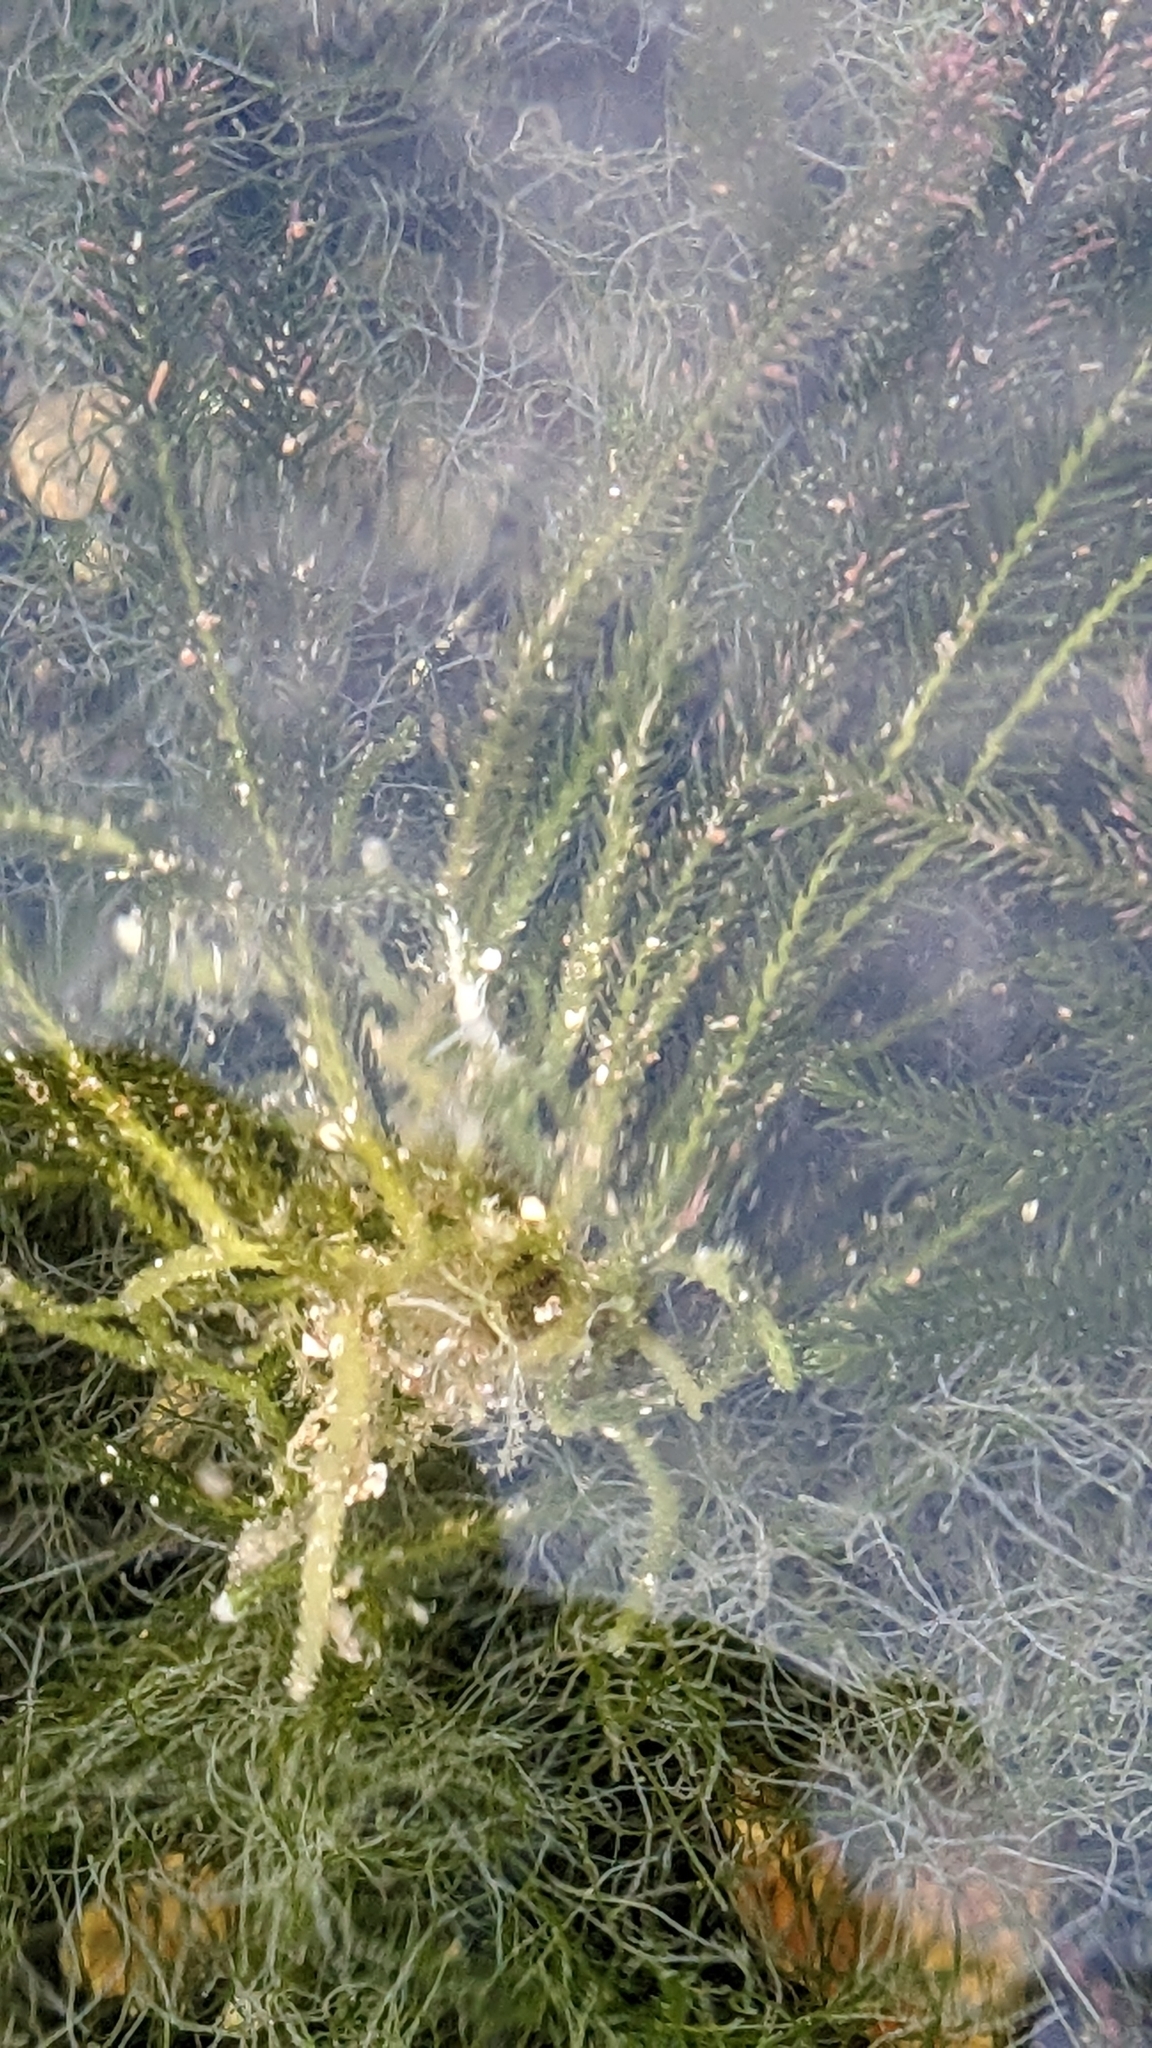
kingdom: Plantae
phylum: Chlorophyta
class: Ulvophyceae
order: Bryopsidales
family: Caulerpaceae
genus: Caulerpa
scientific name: Caulerpa brownii
